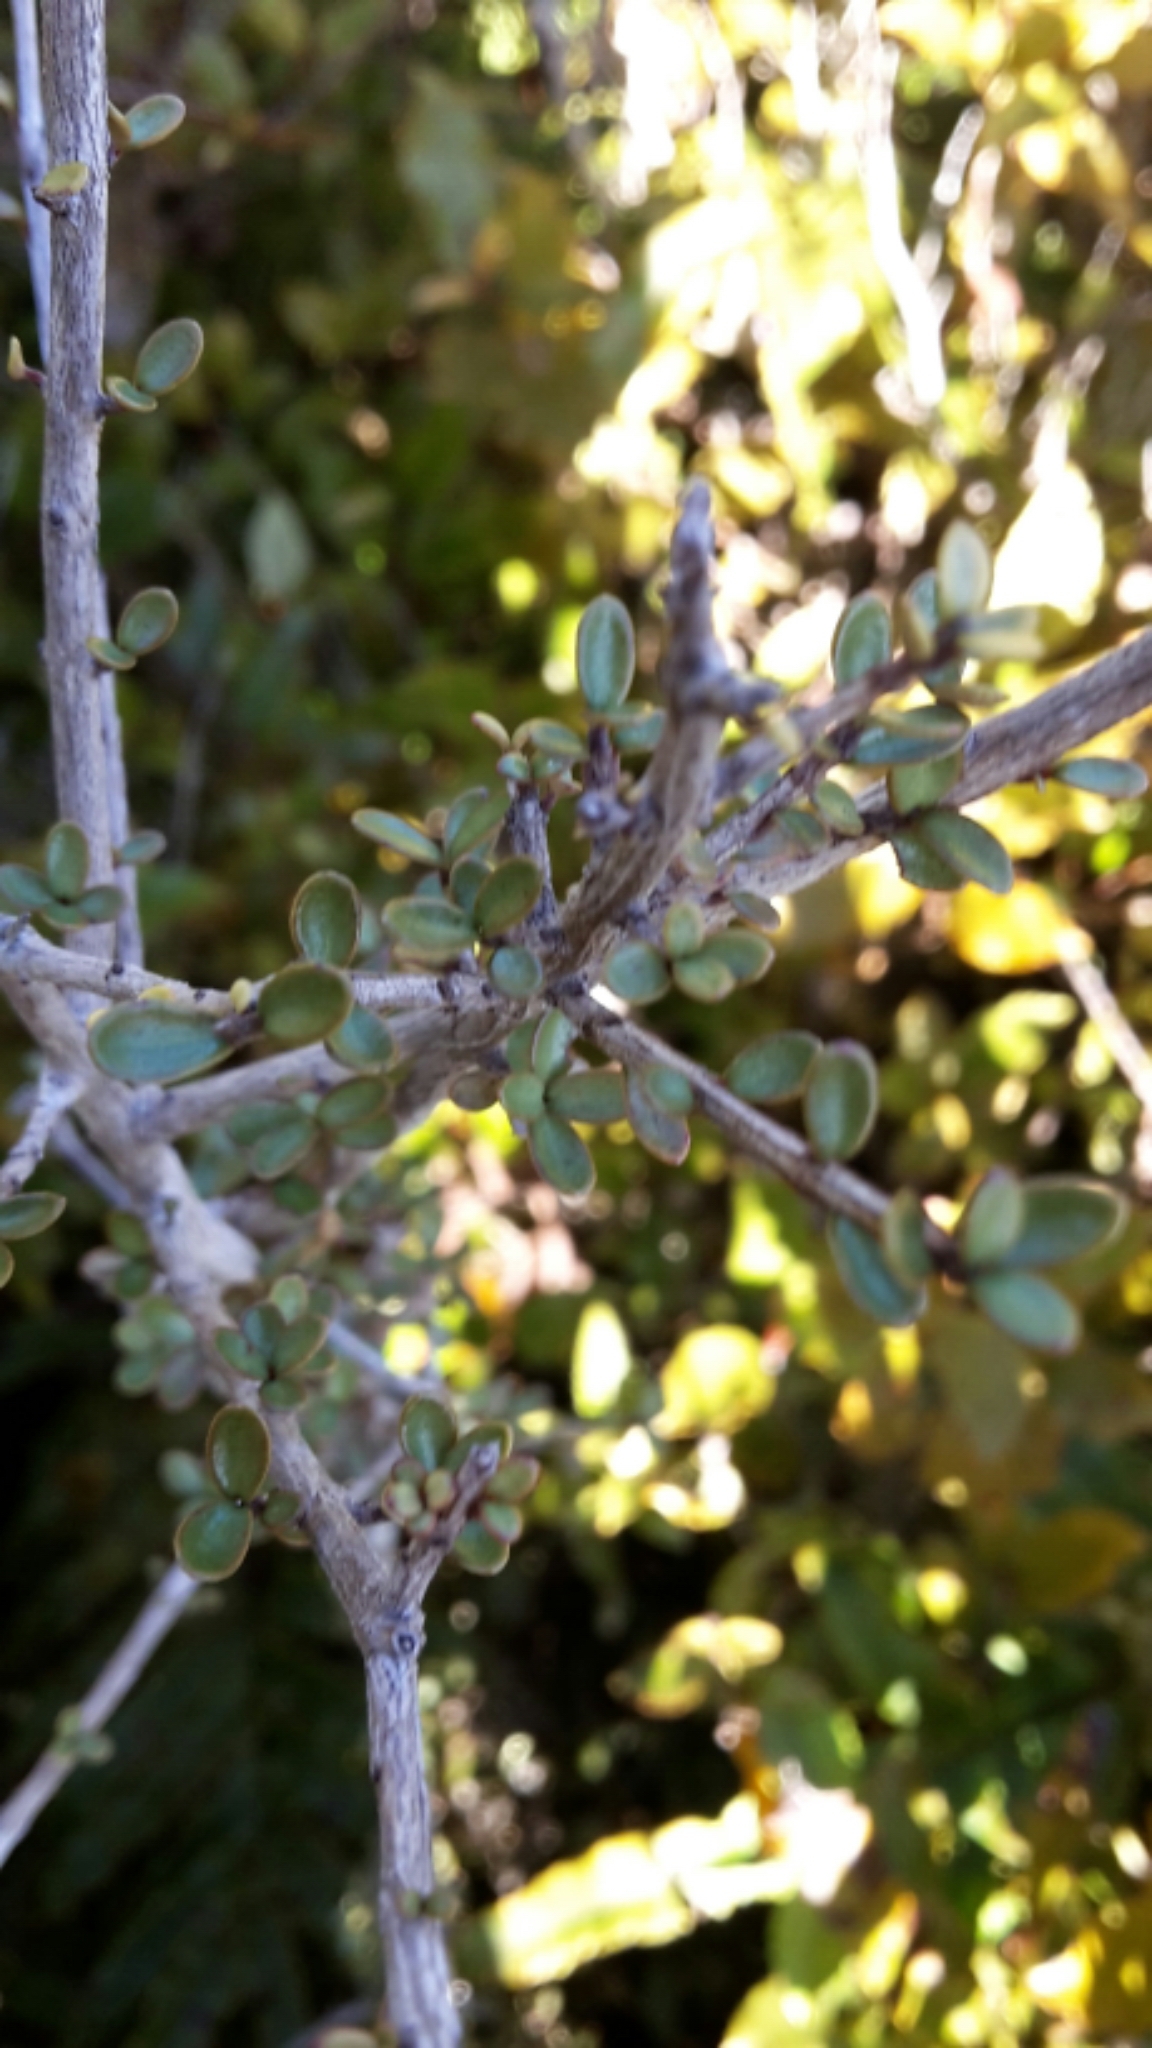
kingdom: Plantae
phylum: Tracheophyta
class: Magnoliopsida
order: Myrtales
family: Myrtaceae
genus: Neomyrtus
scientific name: Neomyrtus pedunculata
